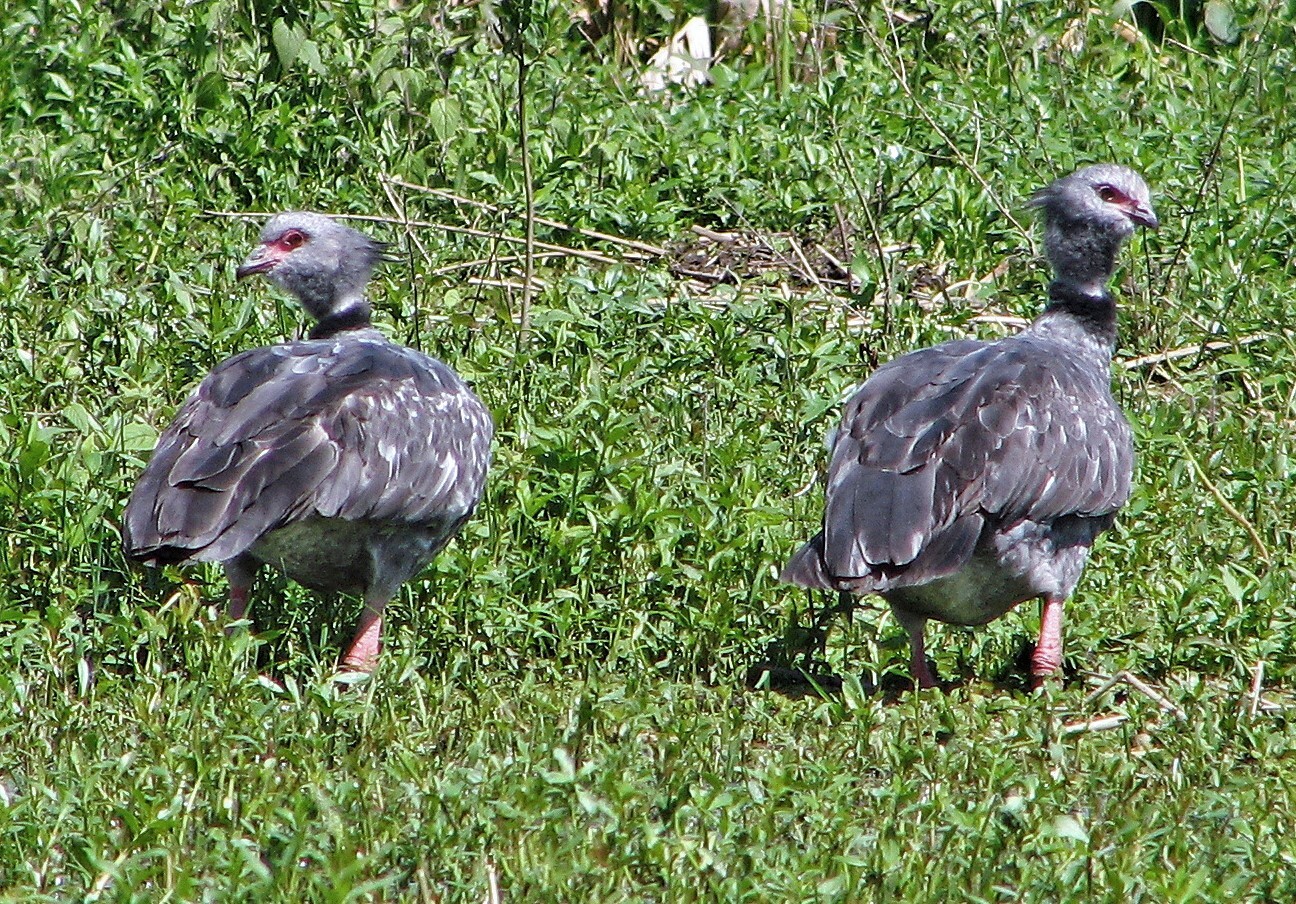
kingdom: Animalia
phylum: Chordata
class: Aves
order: Anseriformes
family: Anhimidae
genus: Chauna
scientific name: Chauna torquata
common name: Southern screamer
